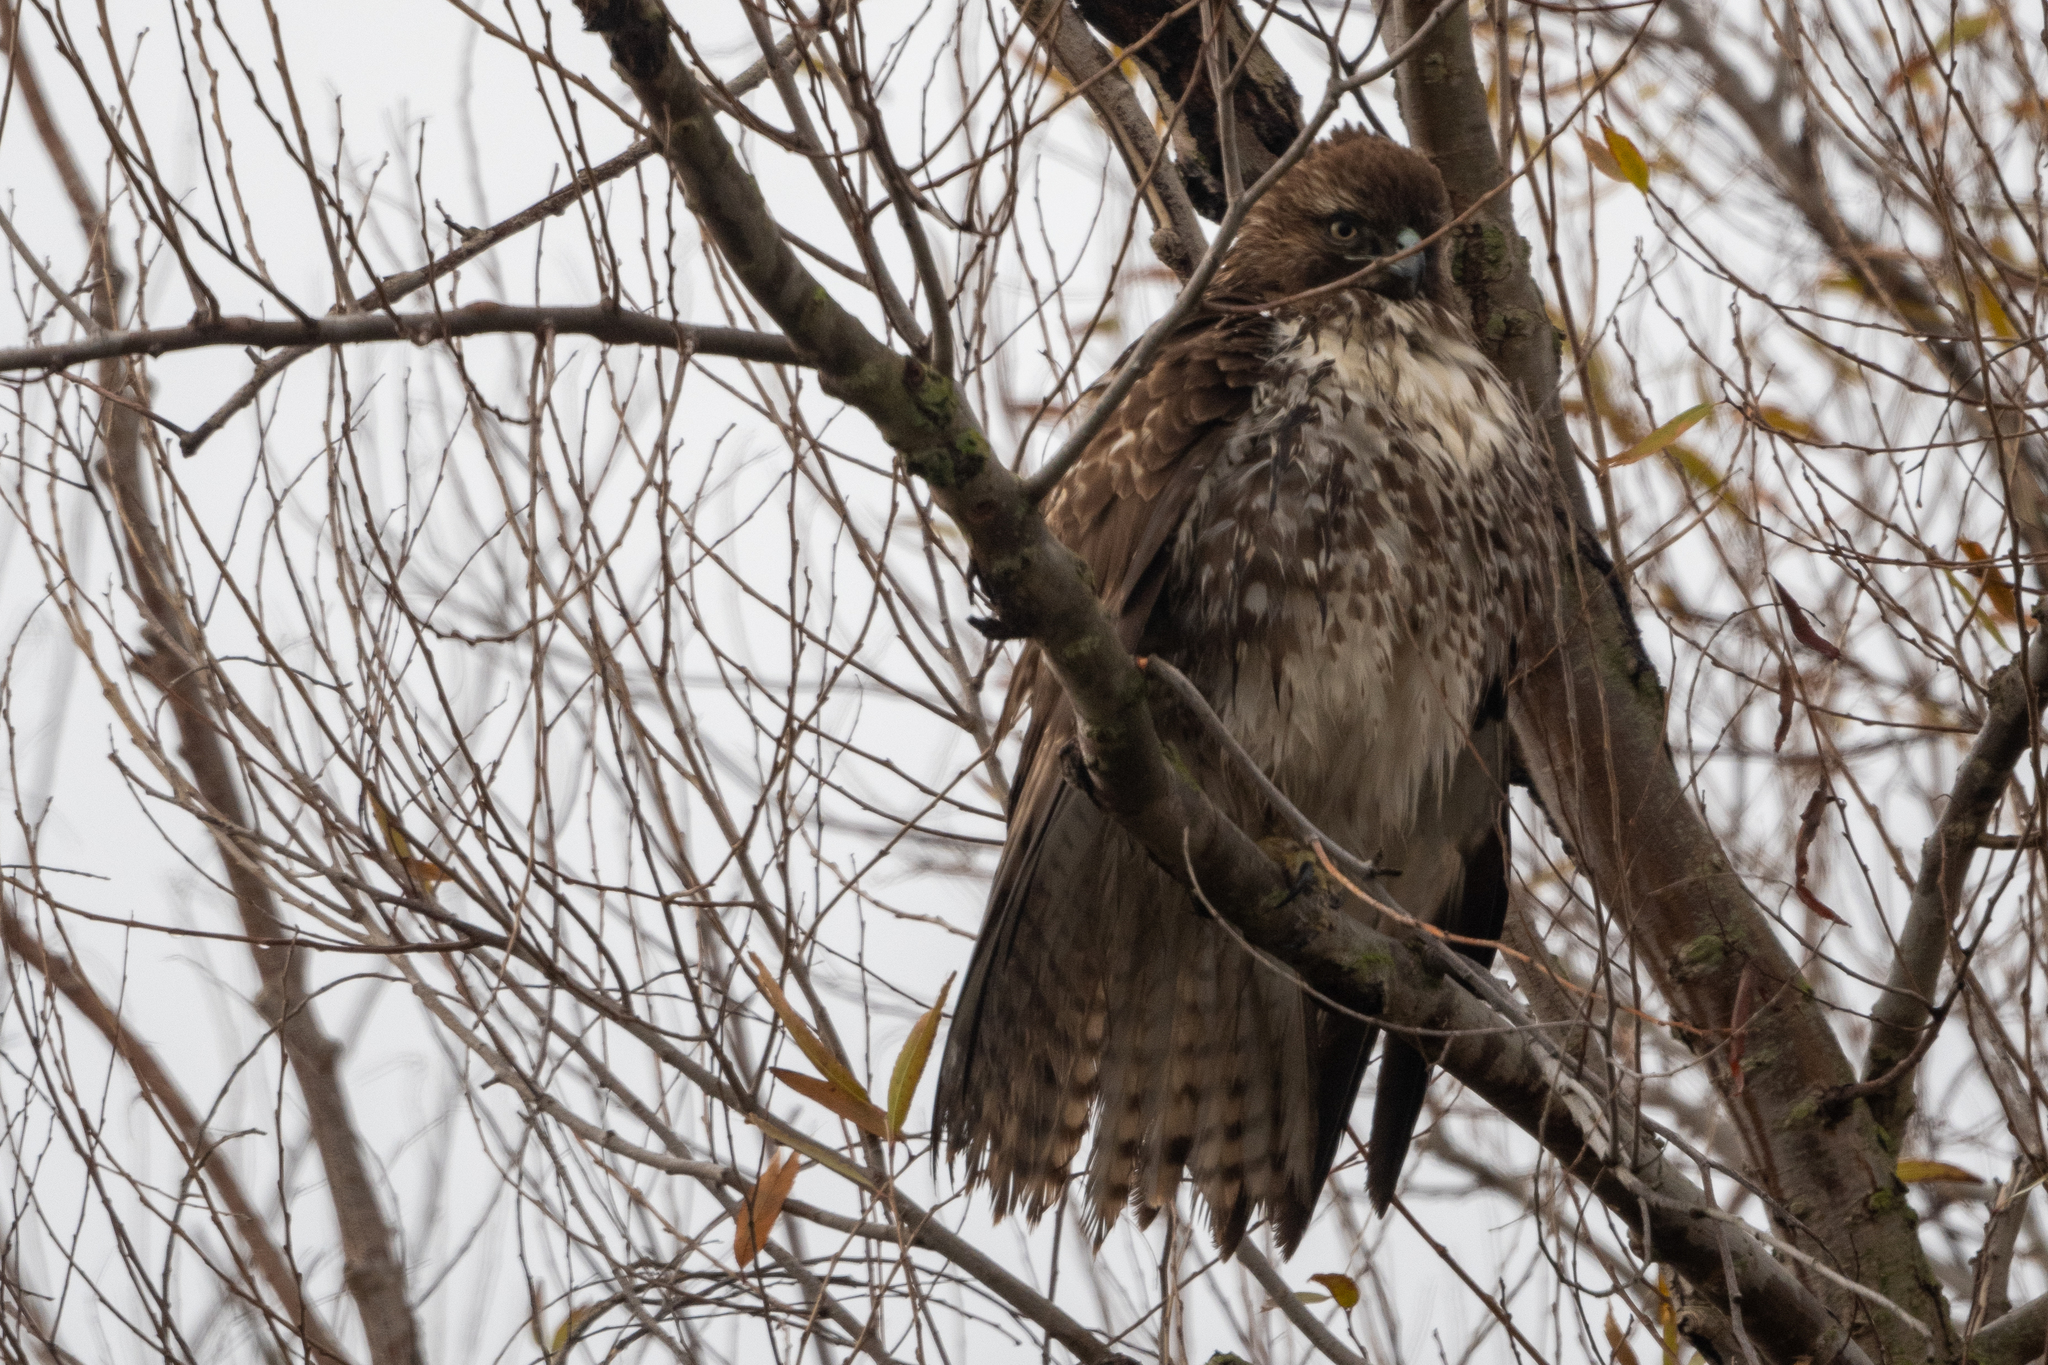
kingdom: Animalia
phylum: Chordata
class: Aves
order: Accipitriformes
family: Accipitridae
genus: Buteo
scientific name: Buteo jamaicensis
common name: Red-tailed hawk
